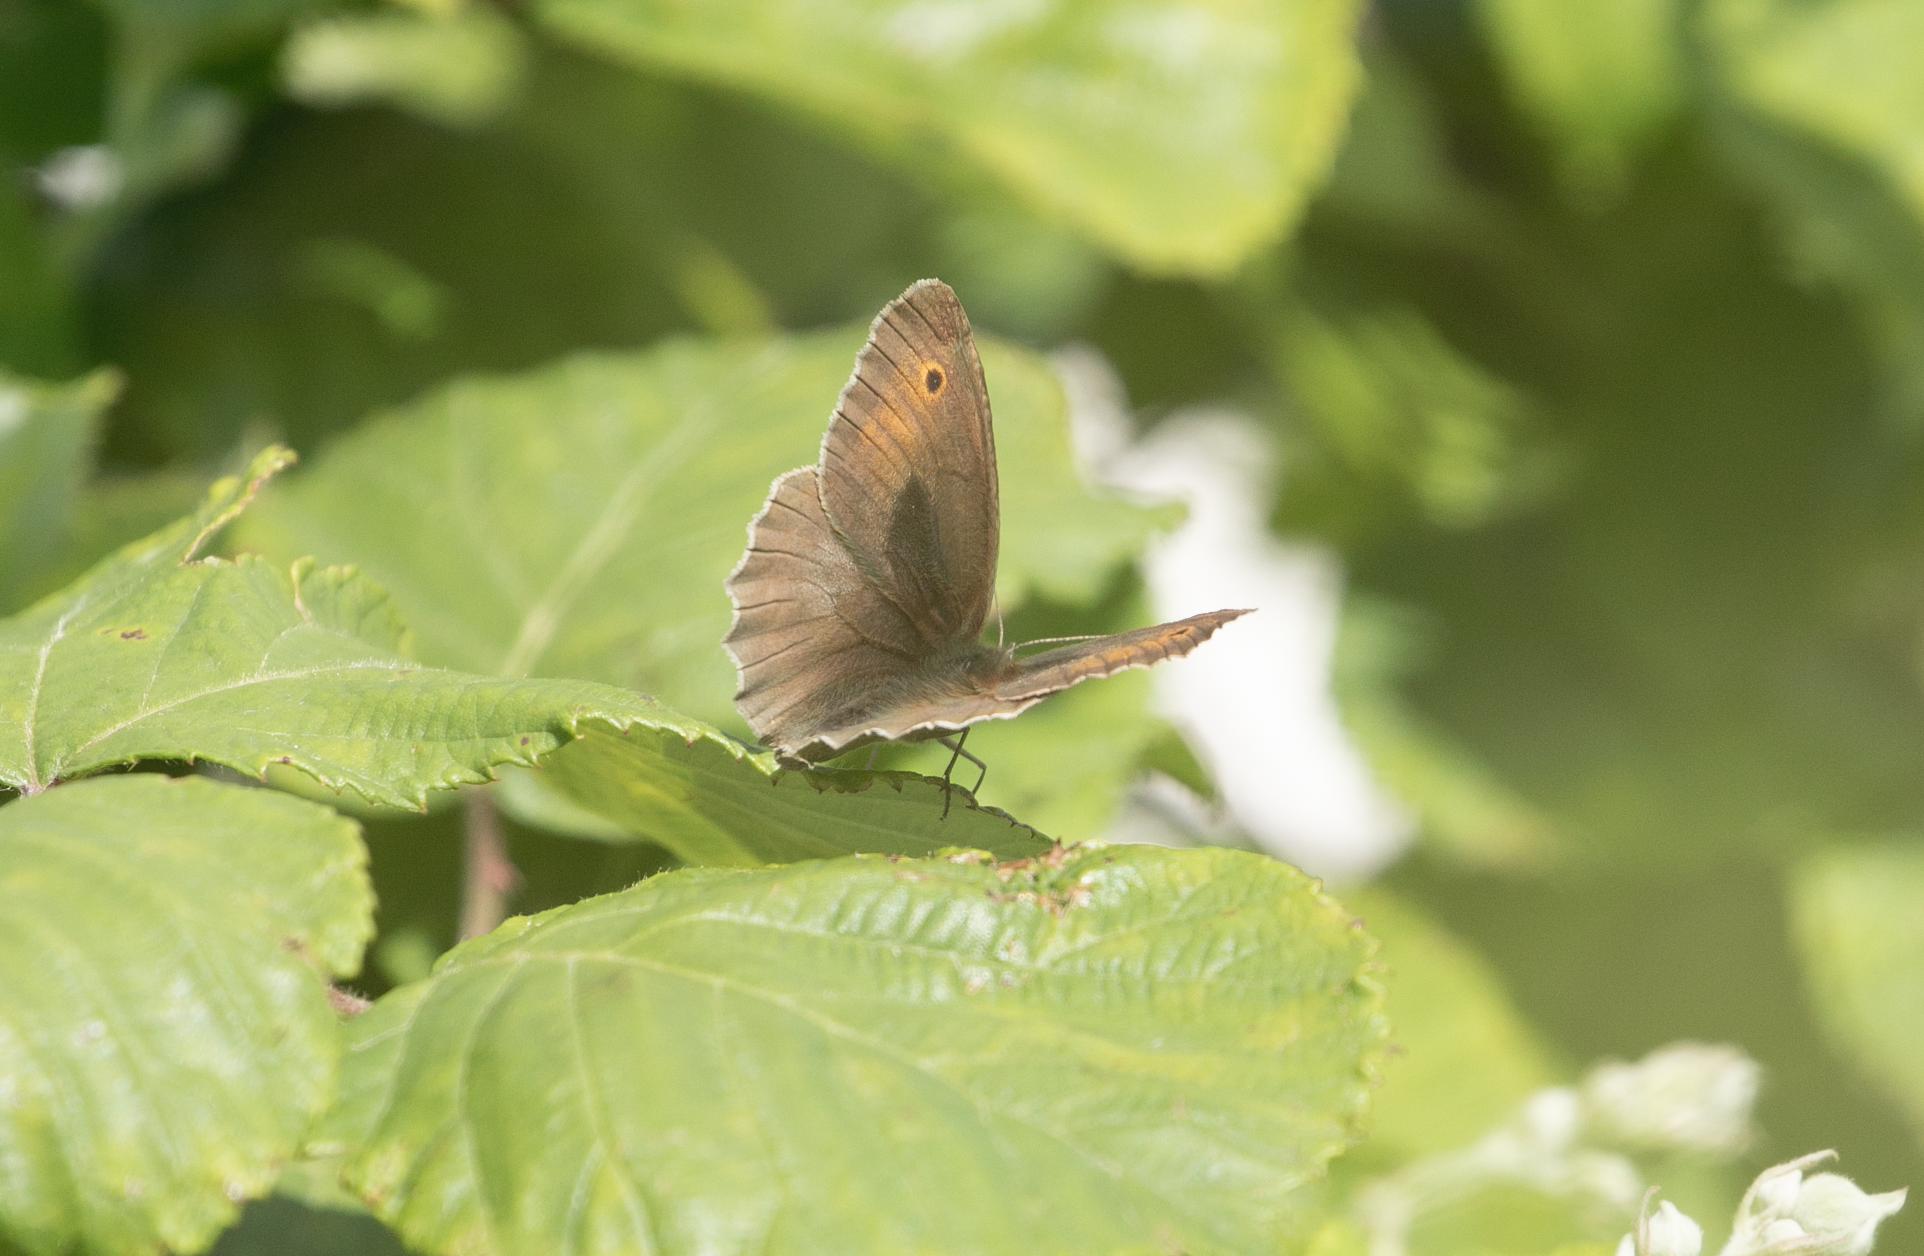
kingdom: Animalia
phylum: Arthropoda
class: Insecta
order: Lepidoptera
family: Nymphalidae
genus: Maniola
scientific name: Maniola jurtina
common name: Meadow brown
